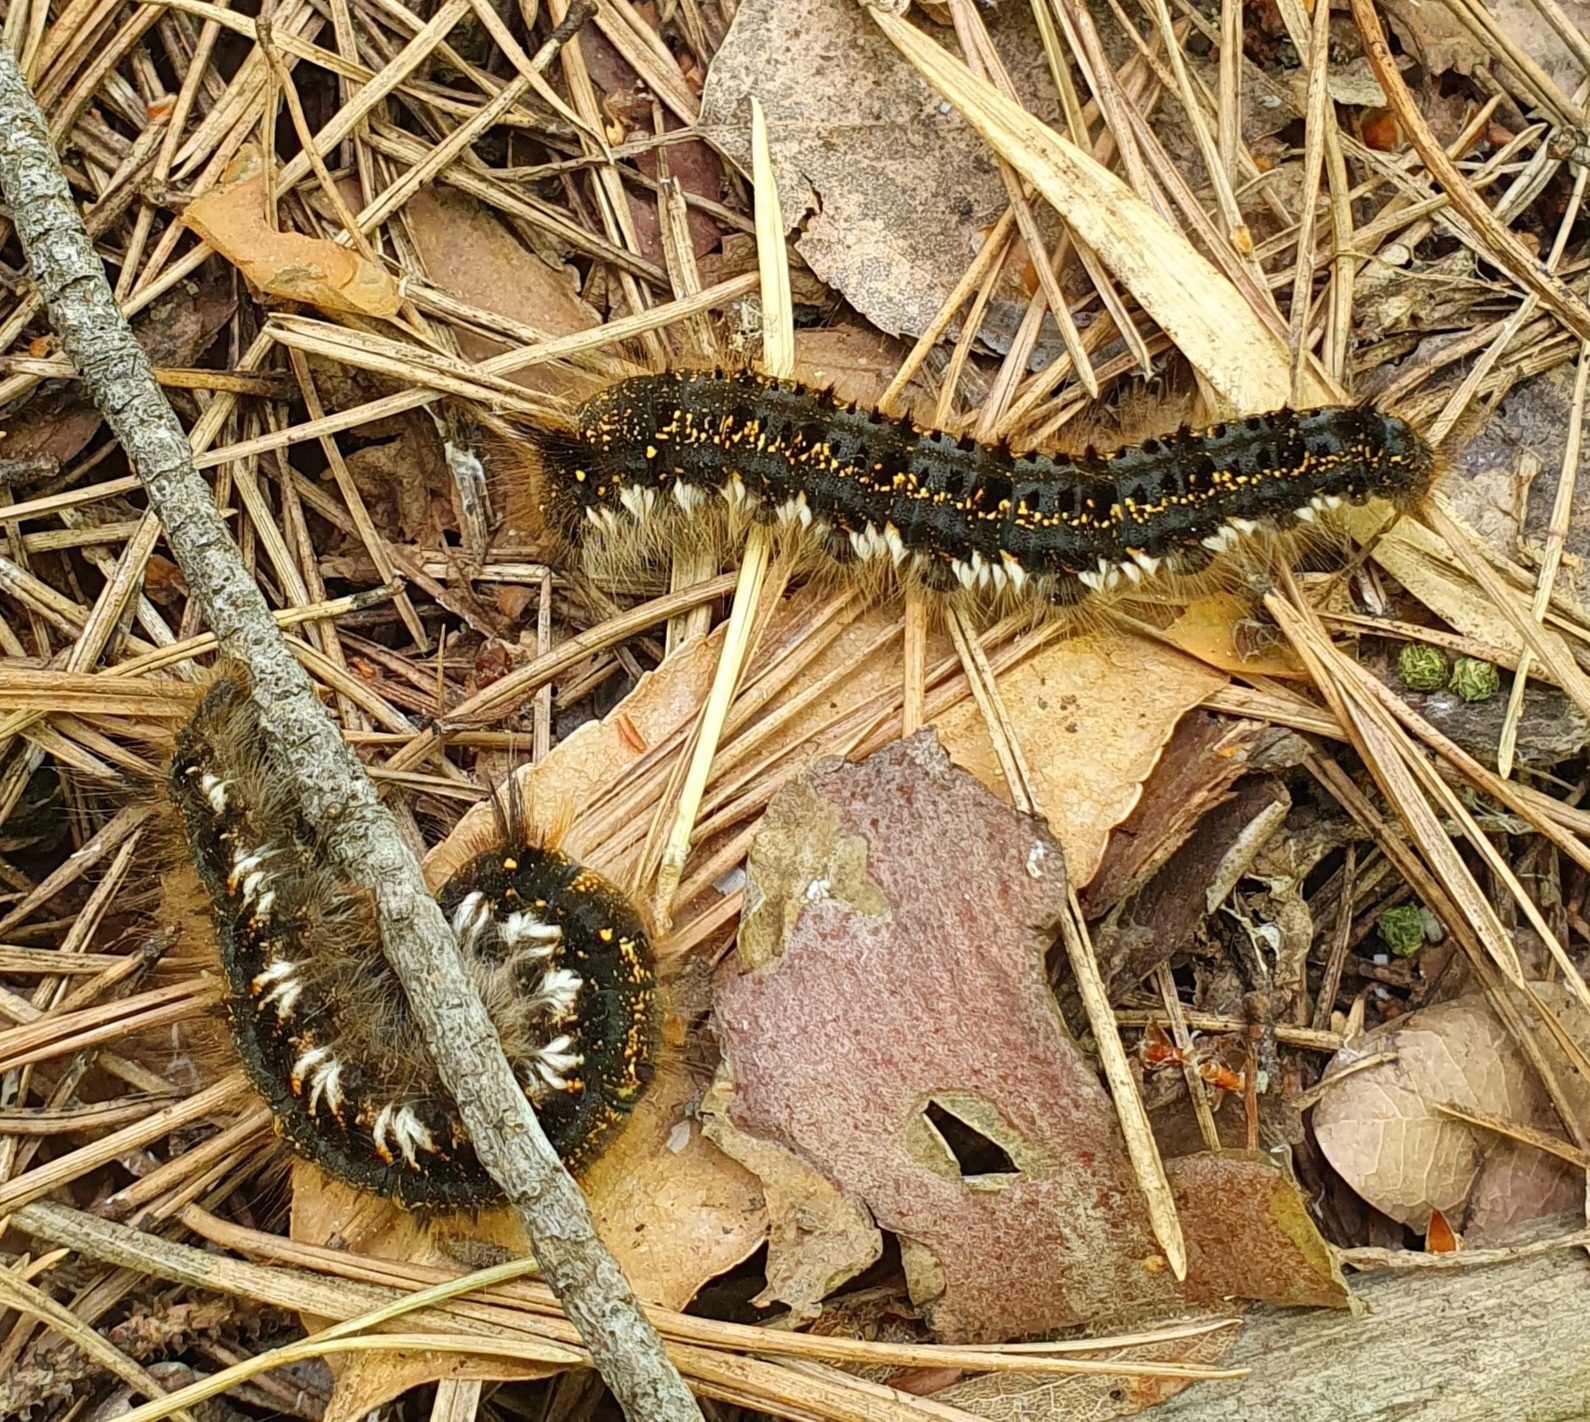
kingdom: Animalia
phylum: Arthropoda
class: Insecta
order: Lepidoptera
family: Lasiocampidae
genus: Euthrix
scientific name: Euthrix potatoria
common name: Drinker
